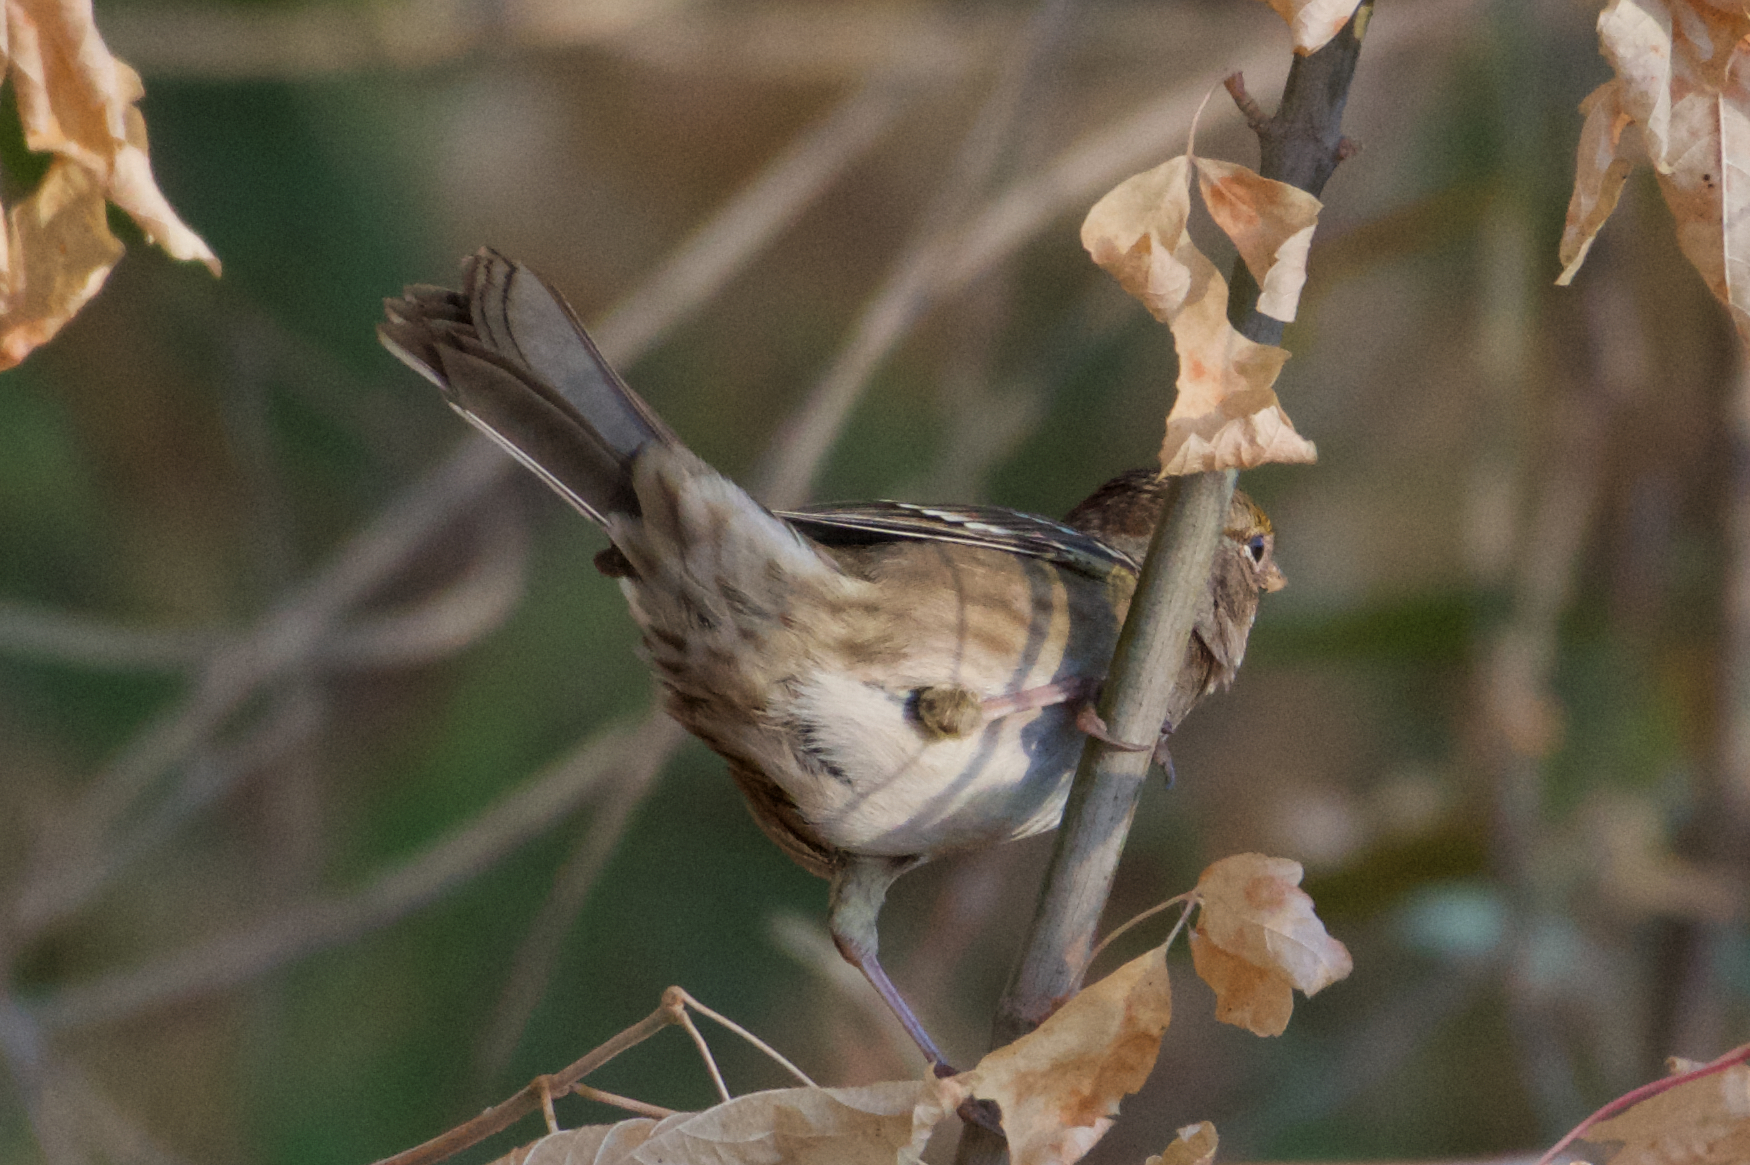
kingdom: Animalia
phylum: Chordata
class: Aves
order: Passeriformes
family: Passerellidae
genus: Zonotrichia
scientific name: Zonotrichia atricapilla
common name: Golden-crowned sparrow
